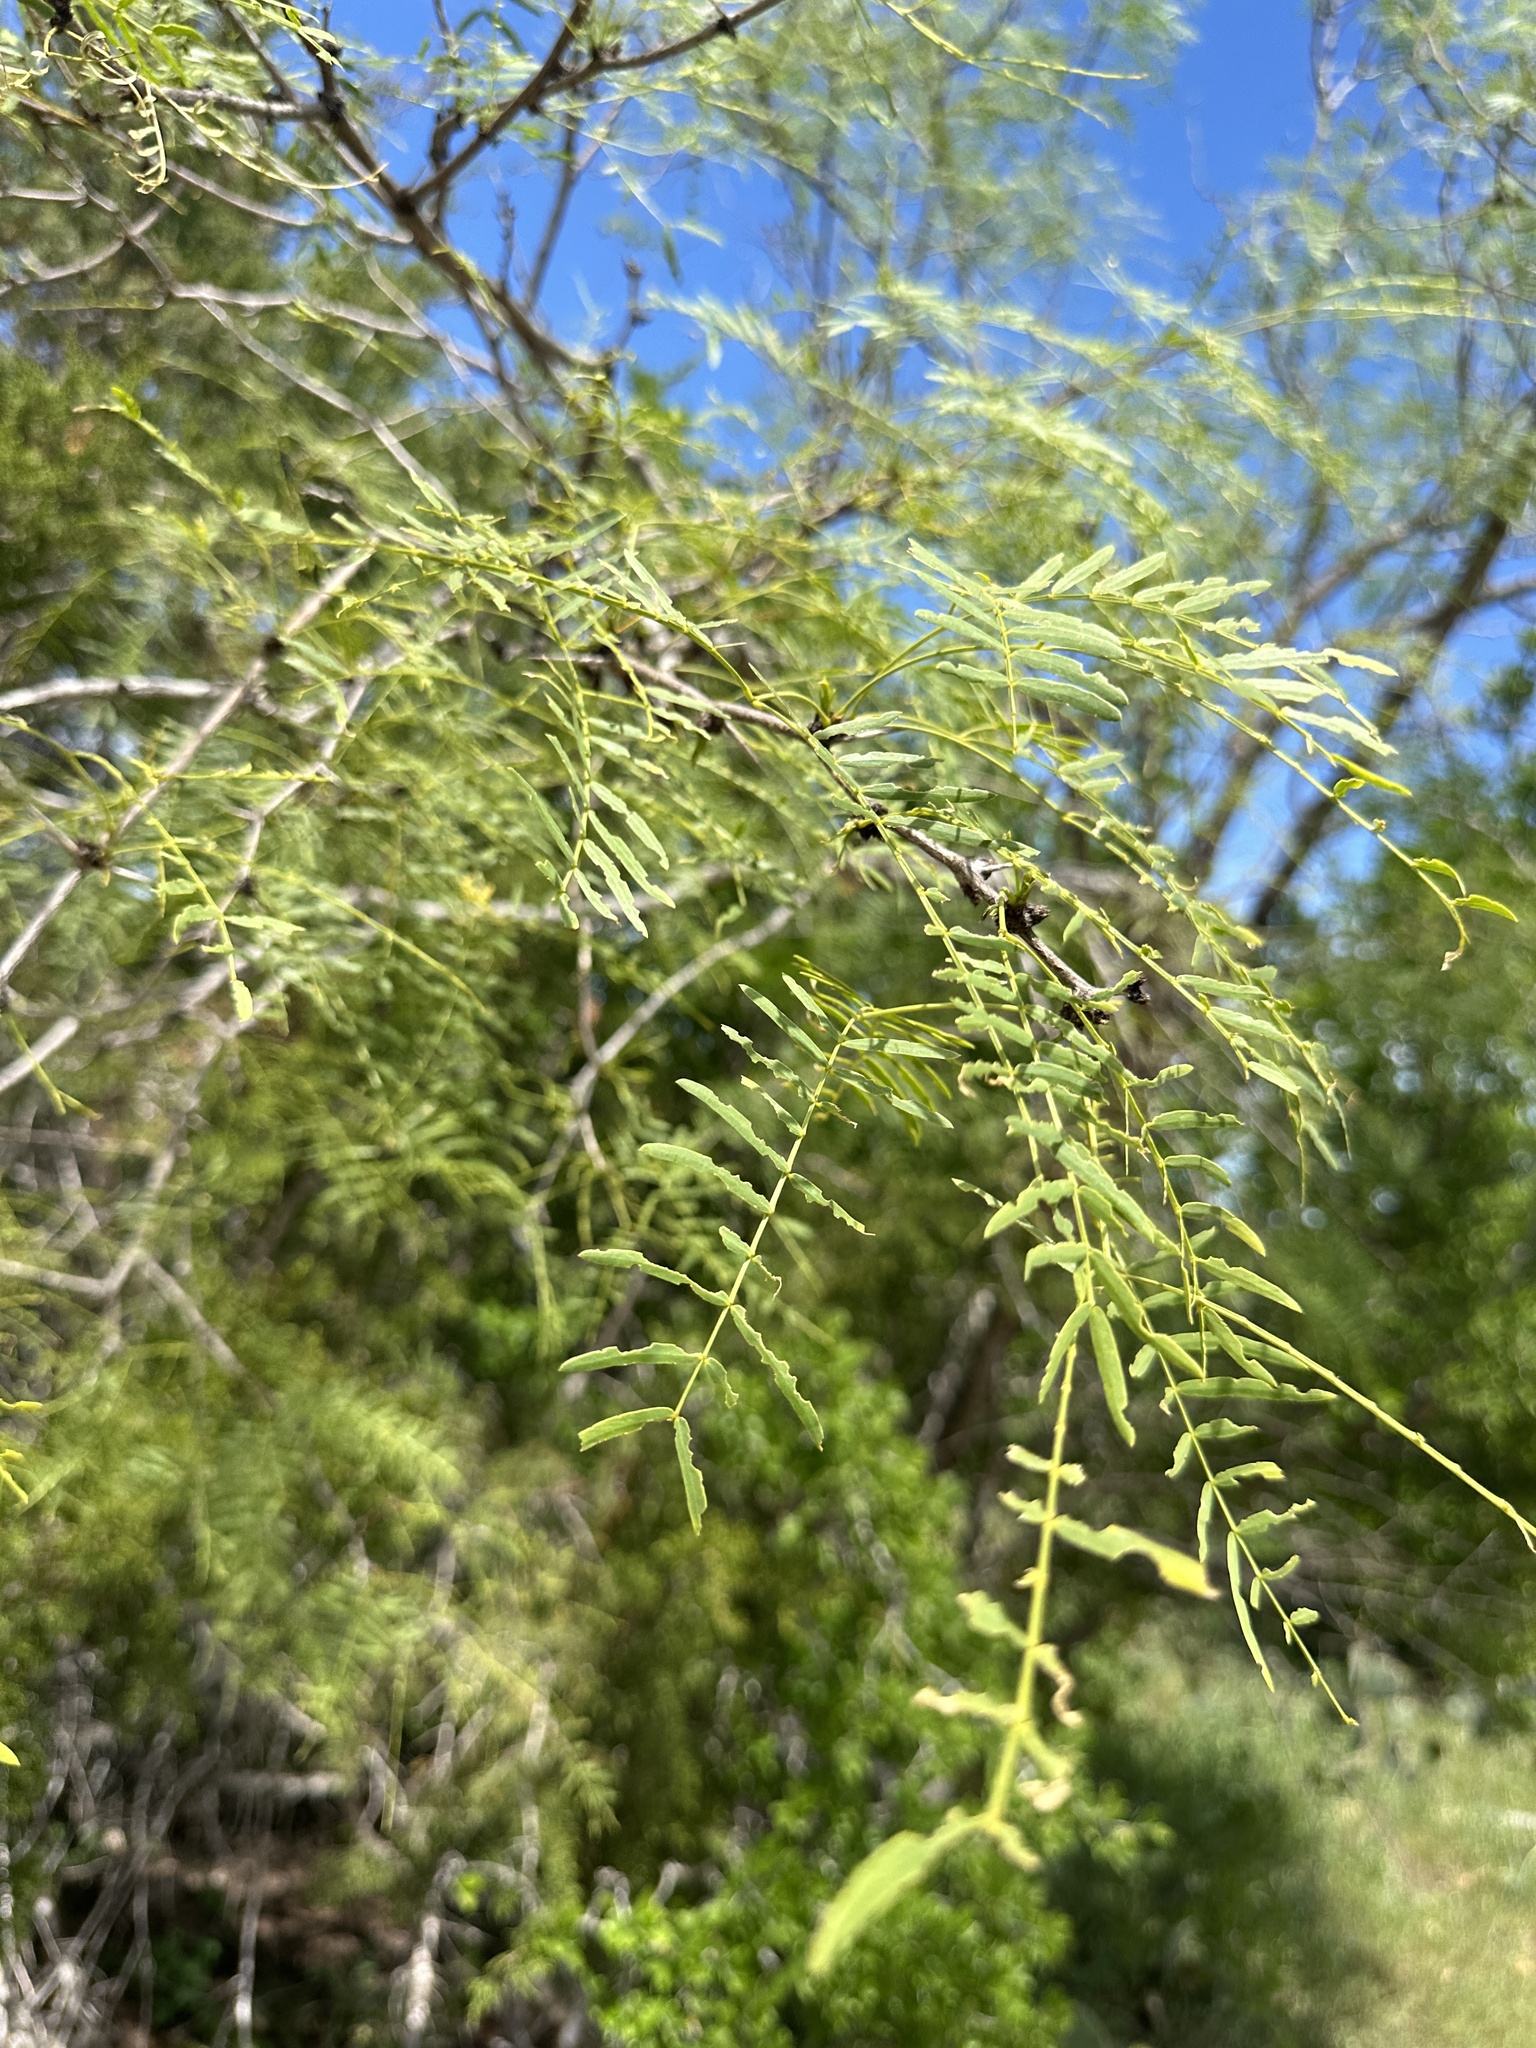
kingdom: Plantae
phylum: Tracheophyta
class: Magnoliopsida
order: Fabales
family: Fabaceae
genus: Prosopis
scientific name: Prosopis glandulosa
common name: Honey mesquite
